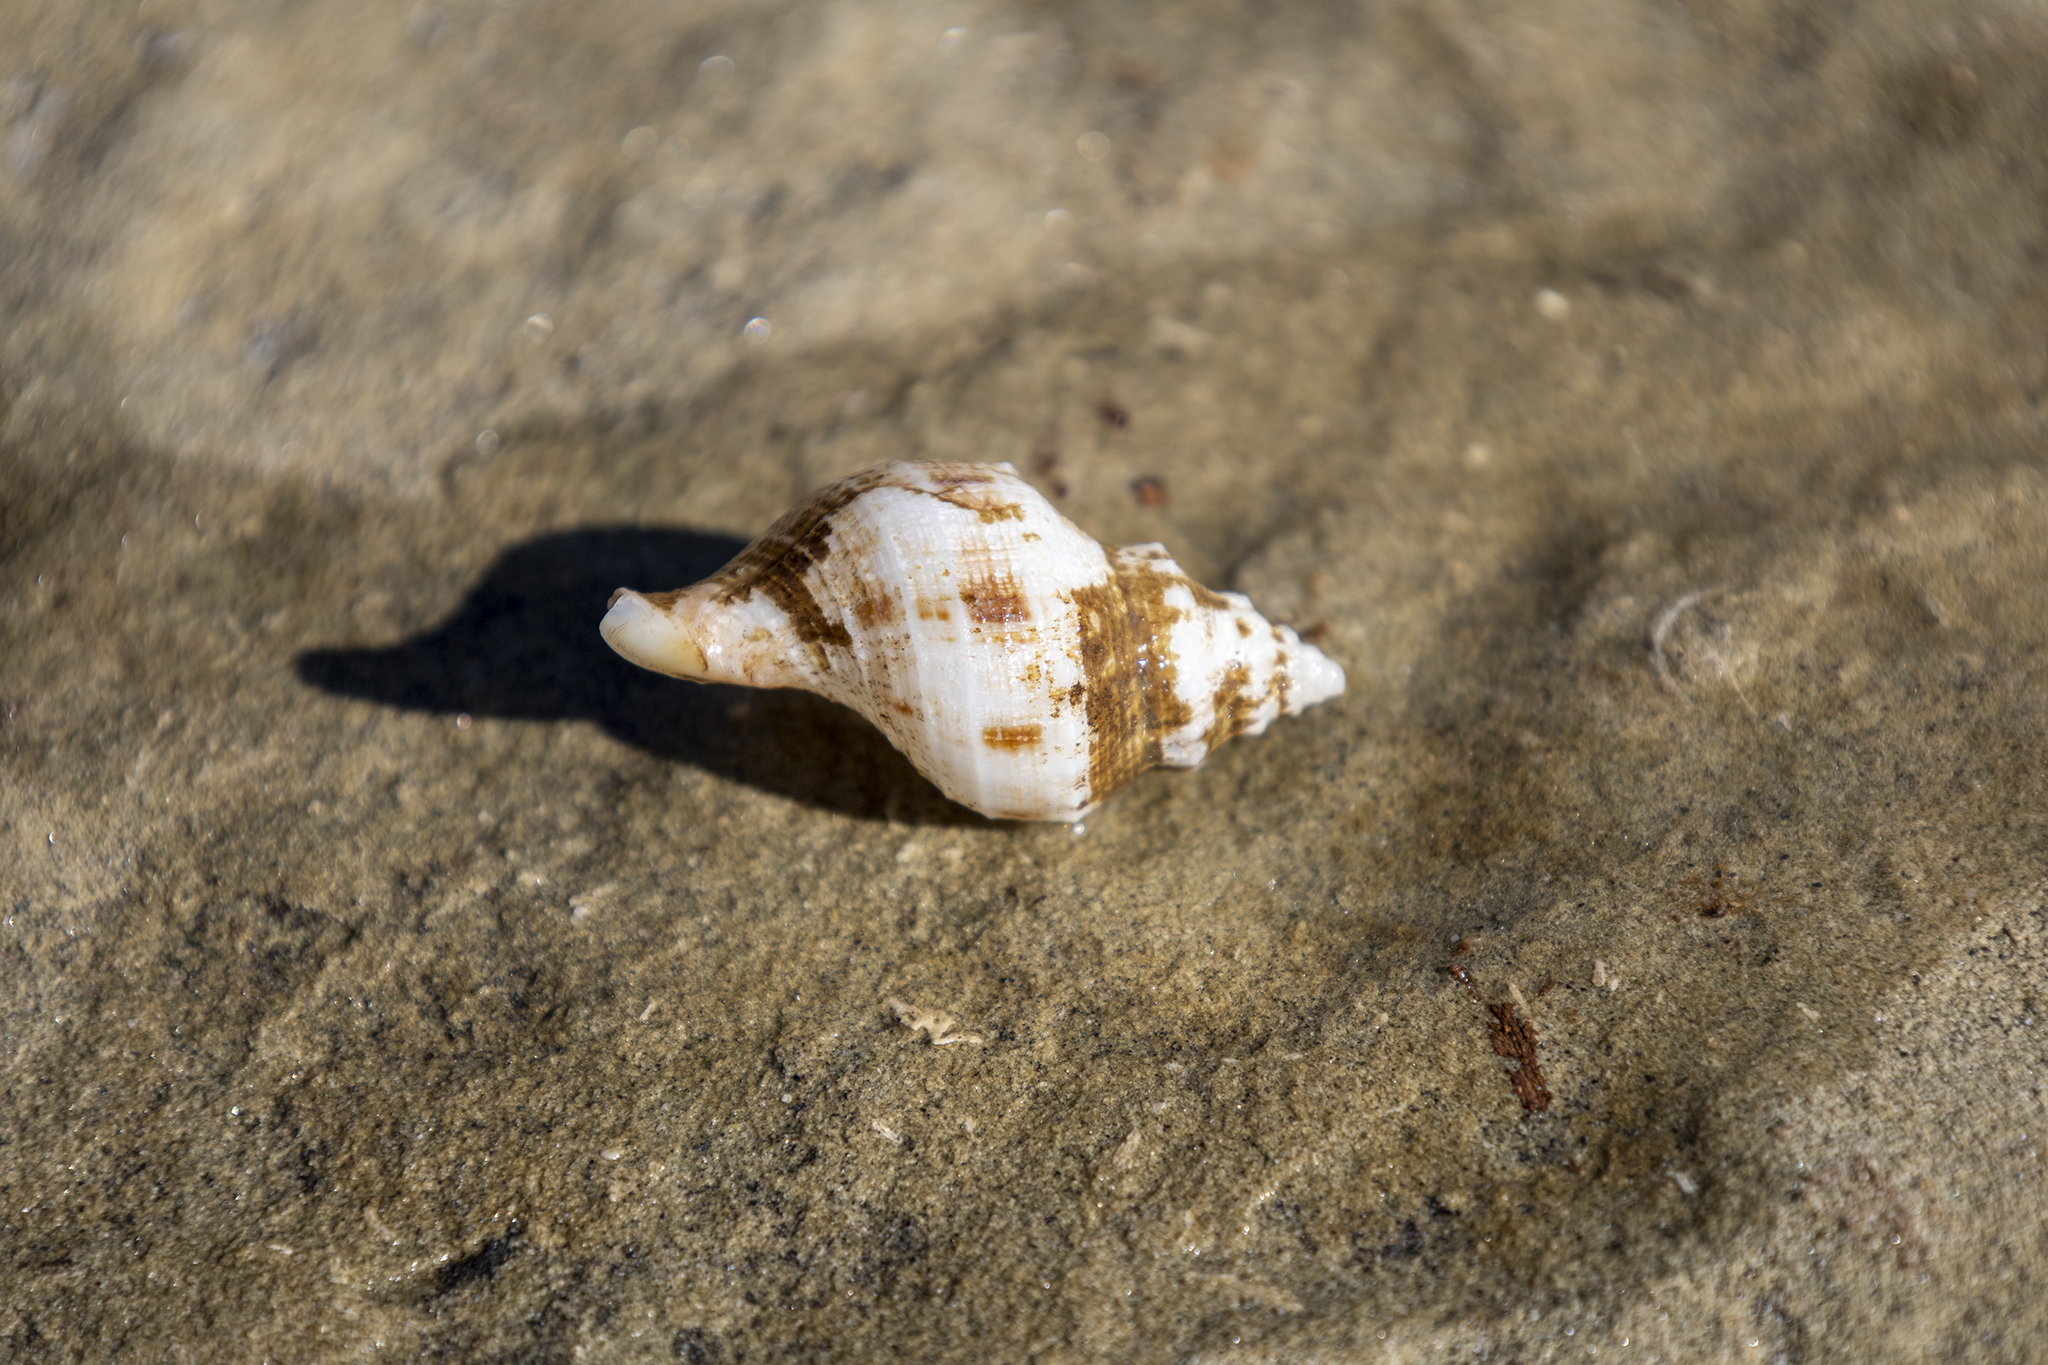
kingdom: Animalia
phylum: Mollusca
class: Gastropoda
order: Neogastropoda
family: Prosiphonidae
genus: Austrofusus
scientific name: Austrofusus glans
